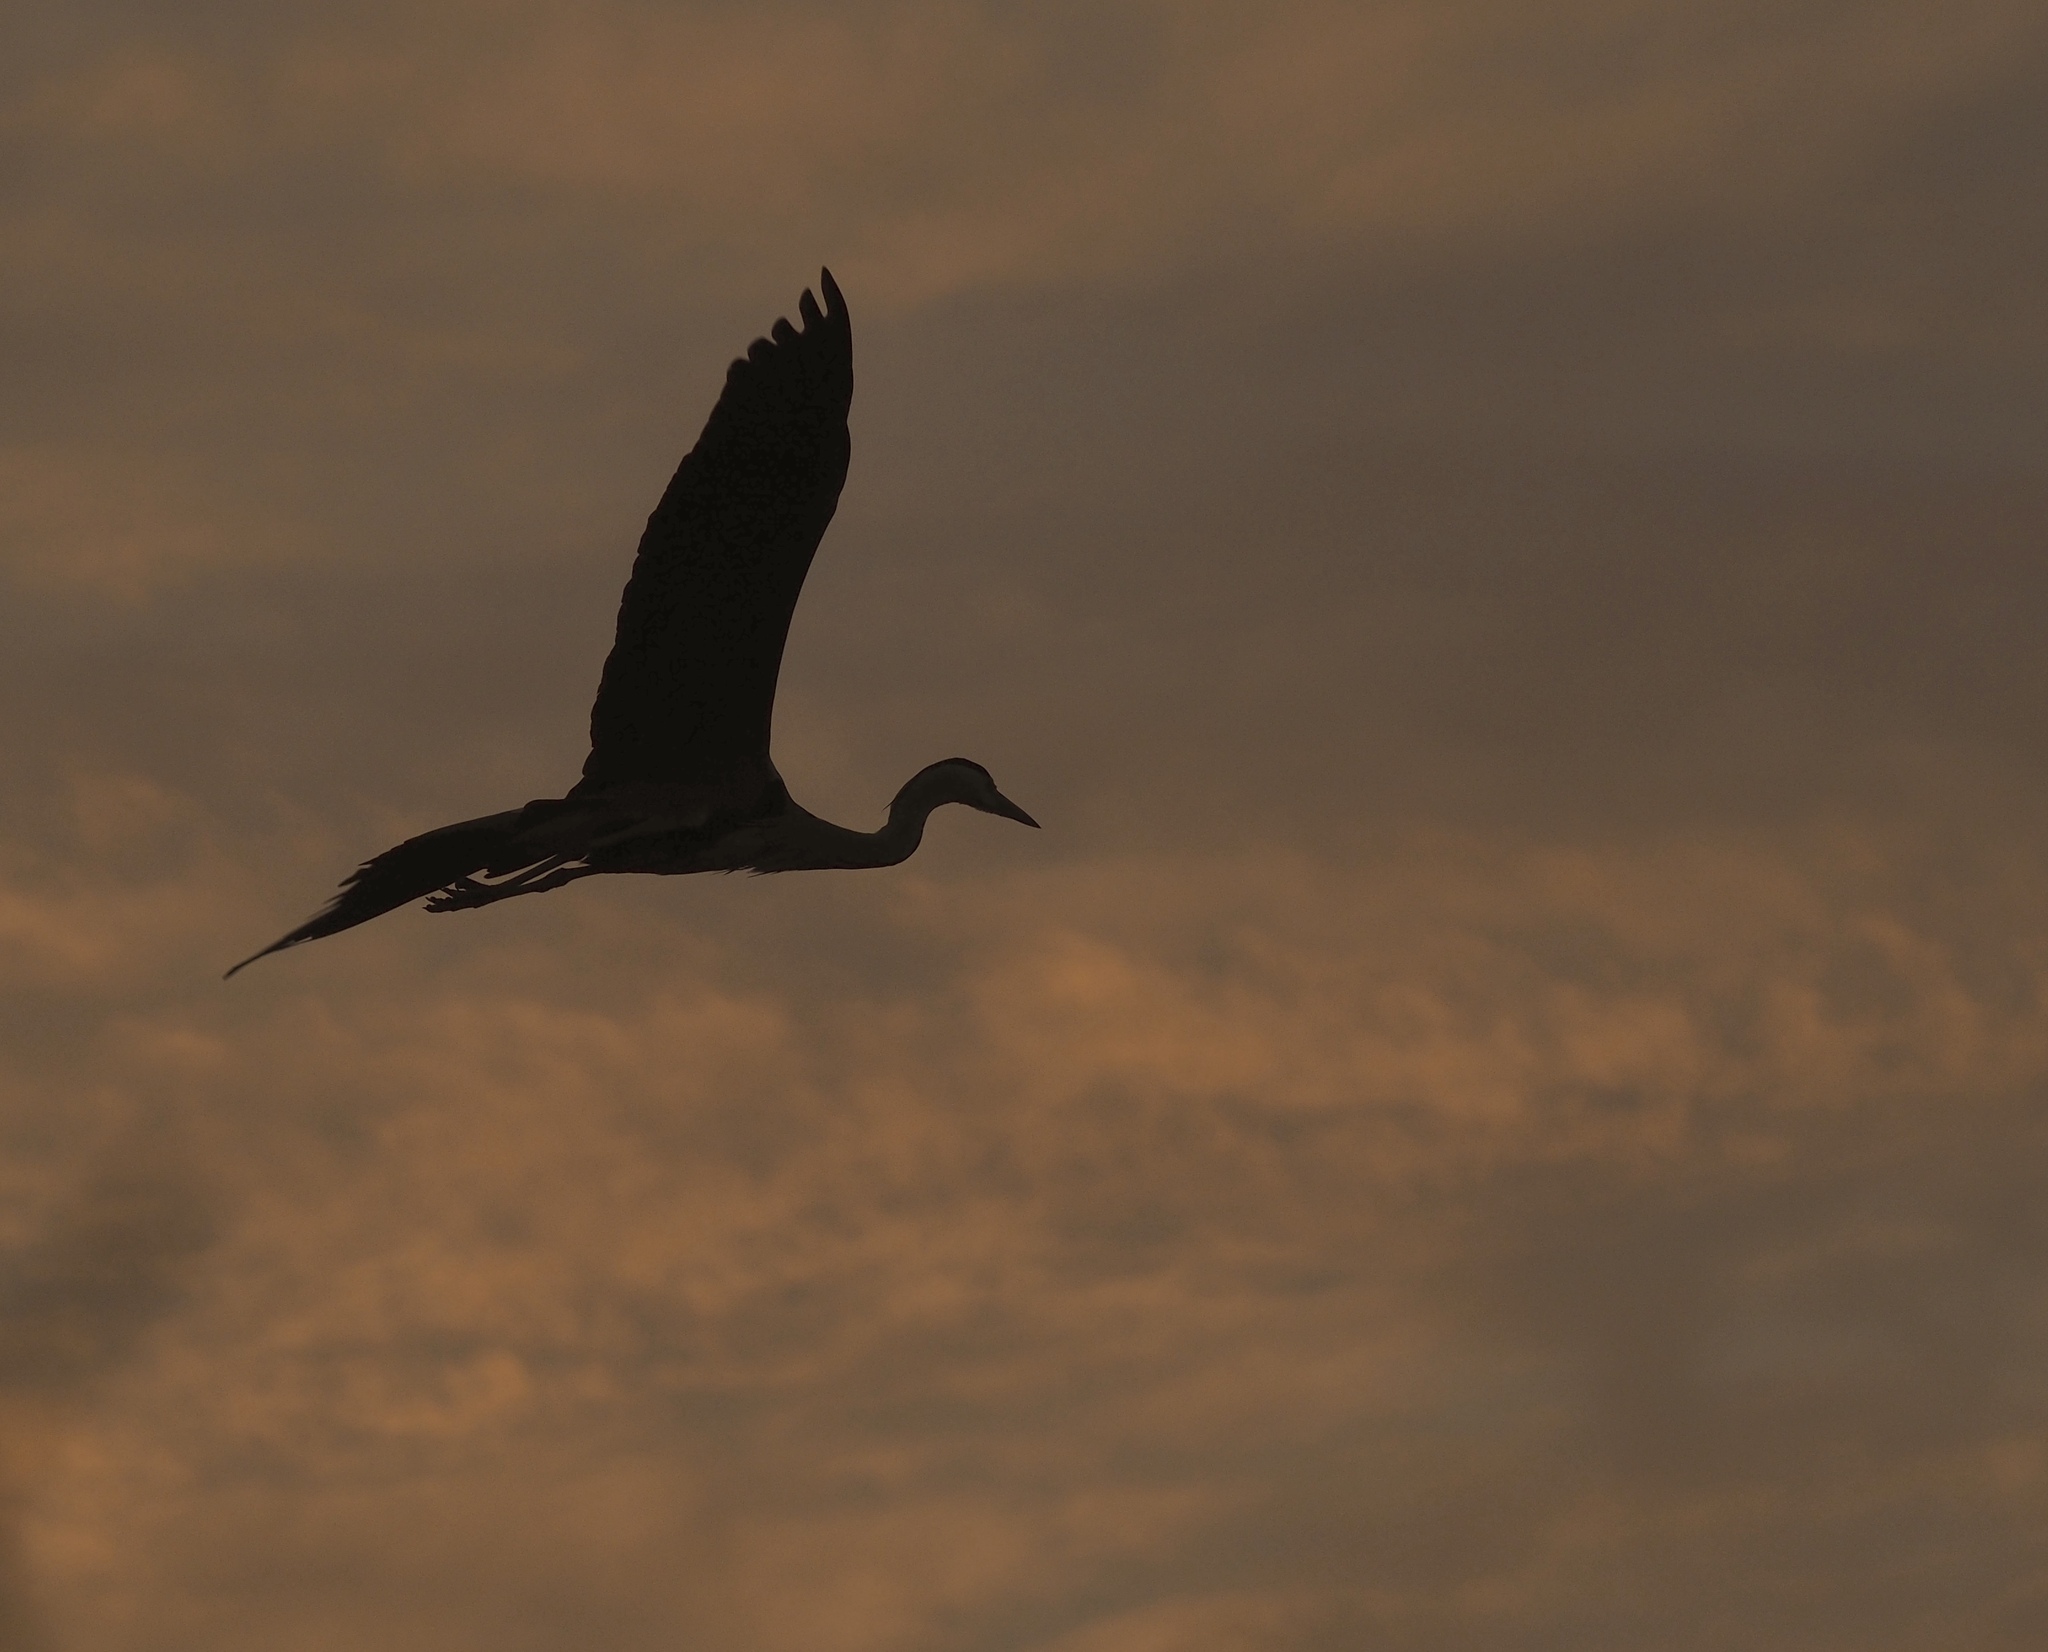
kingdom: Animalia
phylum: Chordata
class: Aves
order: Pelecaniformes
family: Ardeidae
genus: Ardea
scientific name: Ardea cinerea
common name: Grey heron
